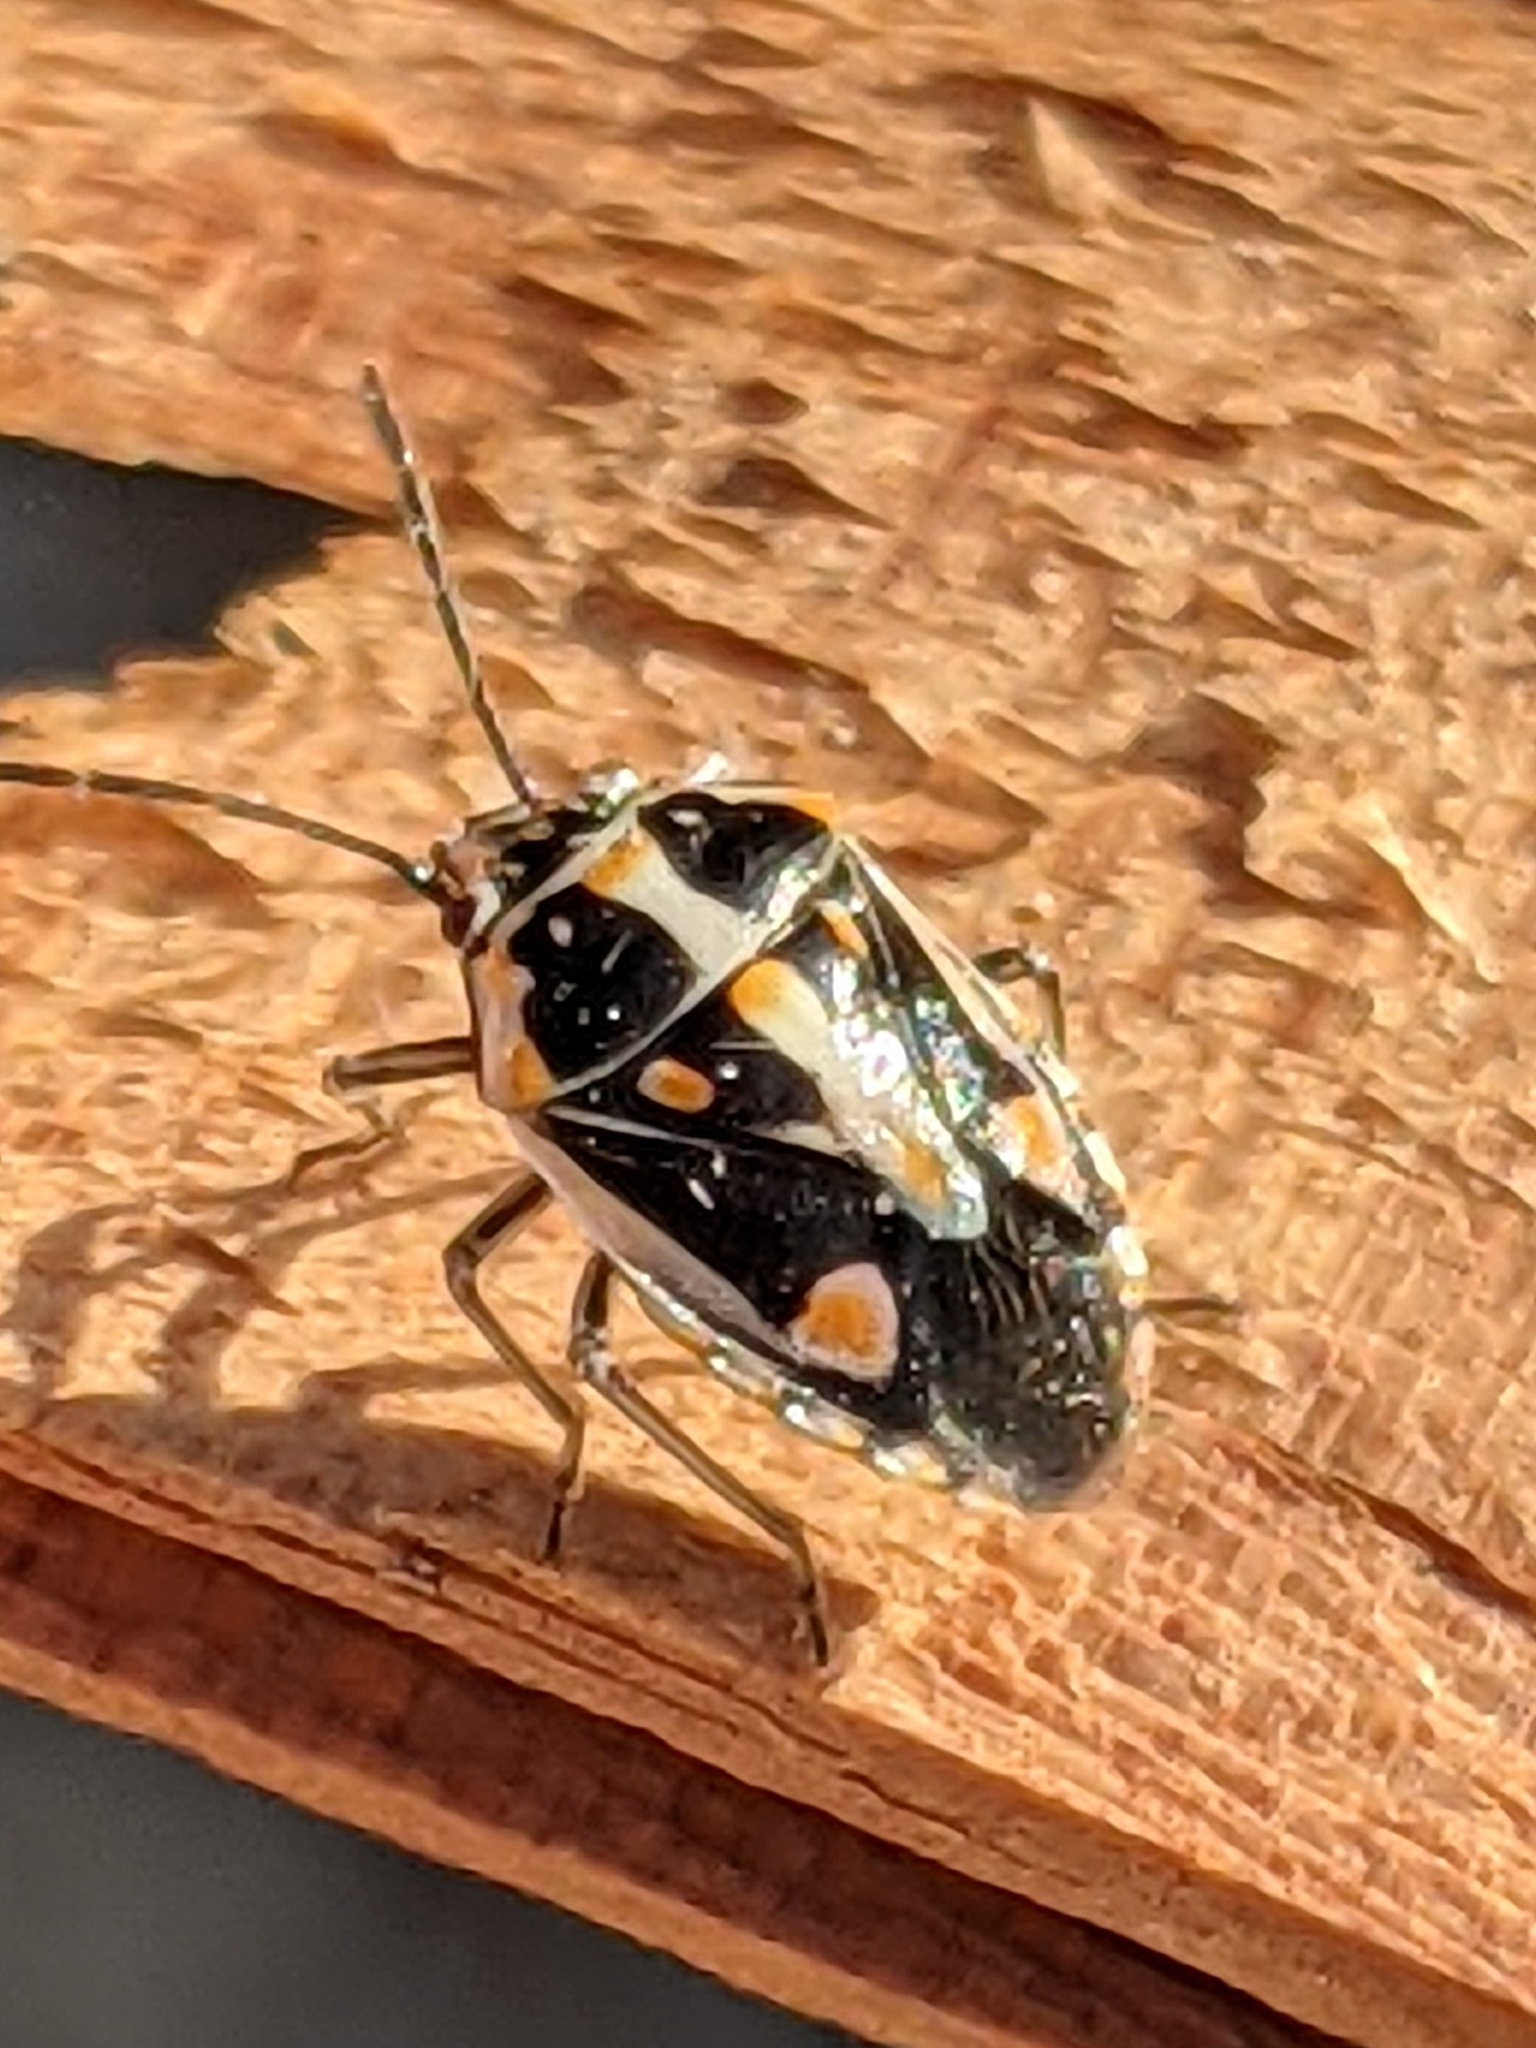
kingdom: Animalia
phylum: Arthropoda
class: Insecta
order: Hemiptera
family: Pentatomidae
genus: Bagrada
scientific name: Bagrada hilaris
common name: Bagrada bug
